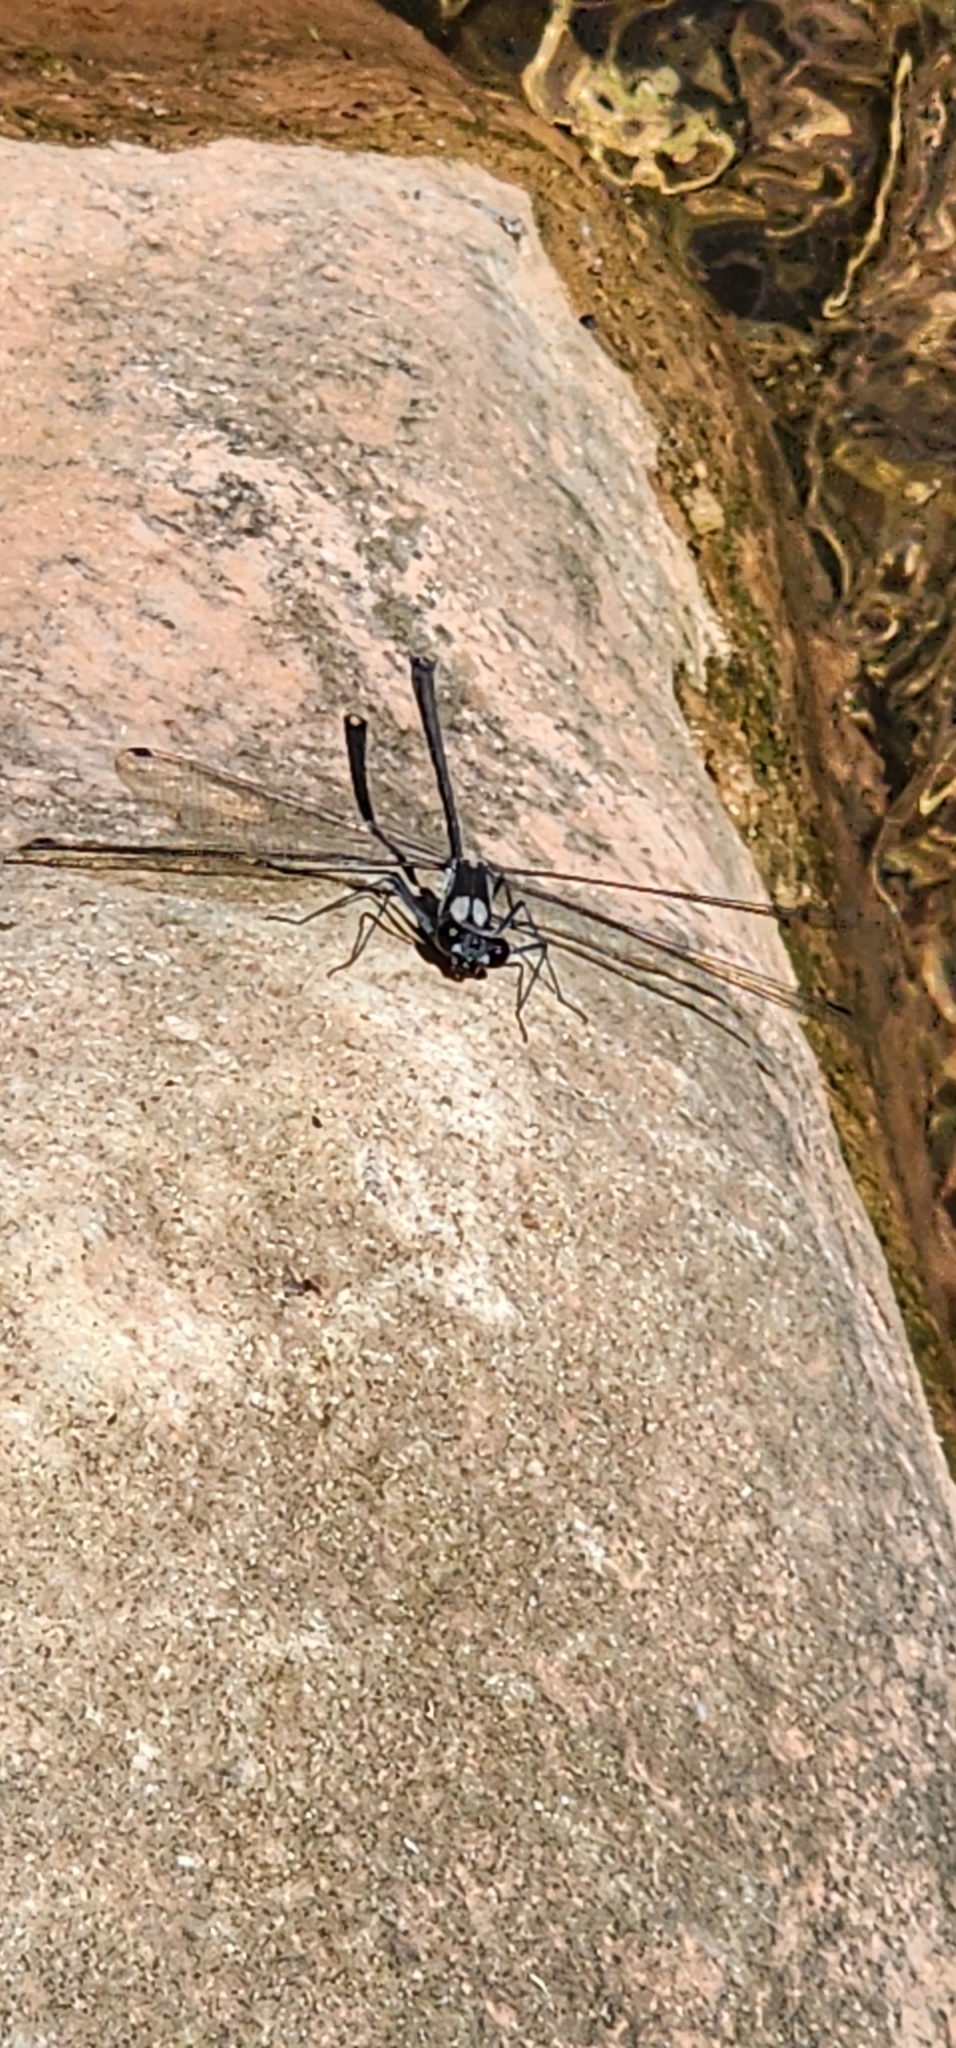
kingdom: Animalia
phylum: Arthropoda
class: Insecta
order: Odonata
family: Megapodagrionidae
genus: Teinopodagrion
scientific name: Teinopodagrion meridionale
